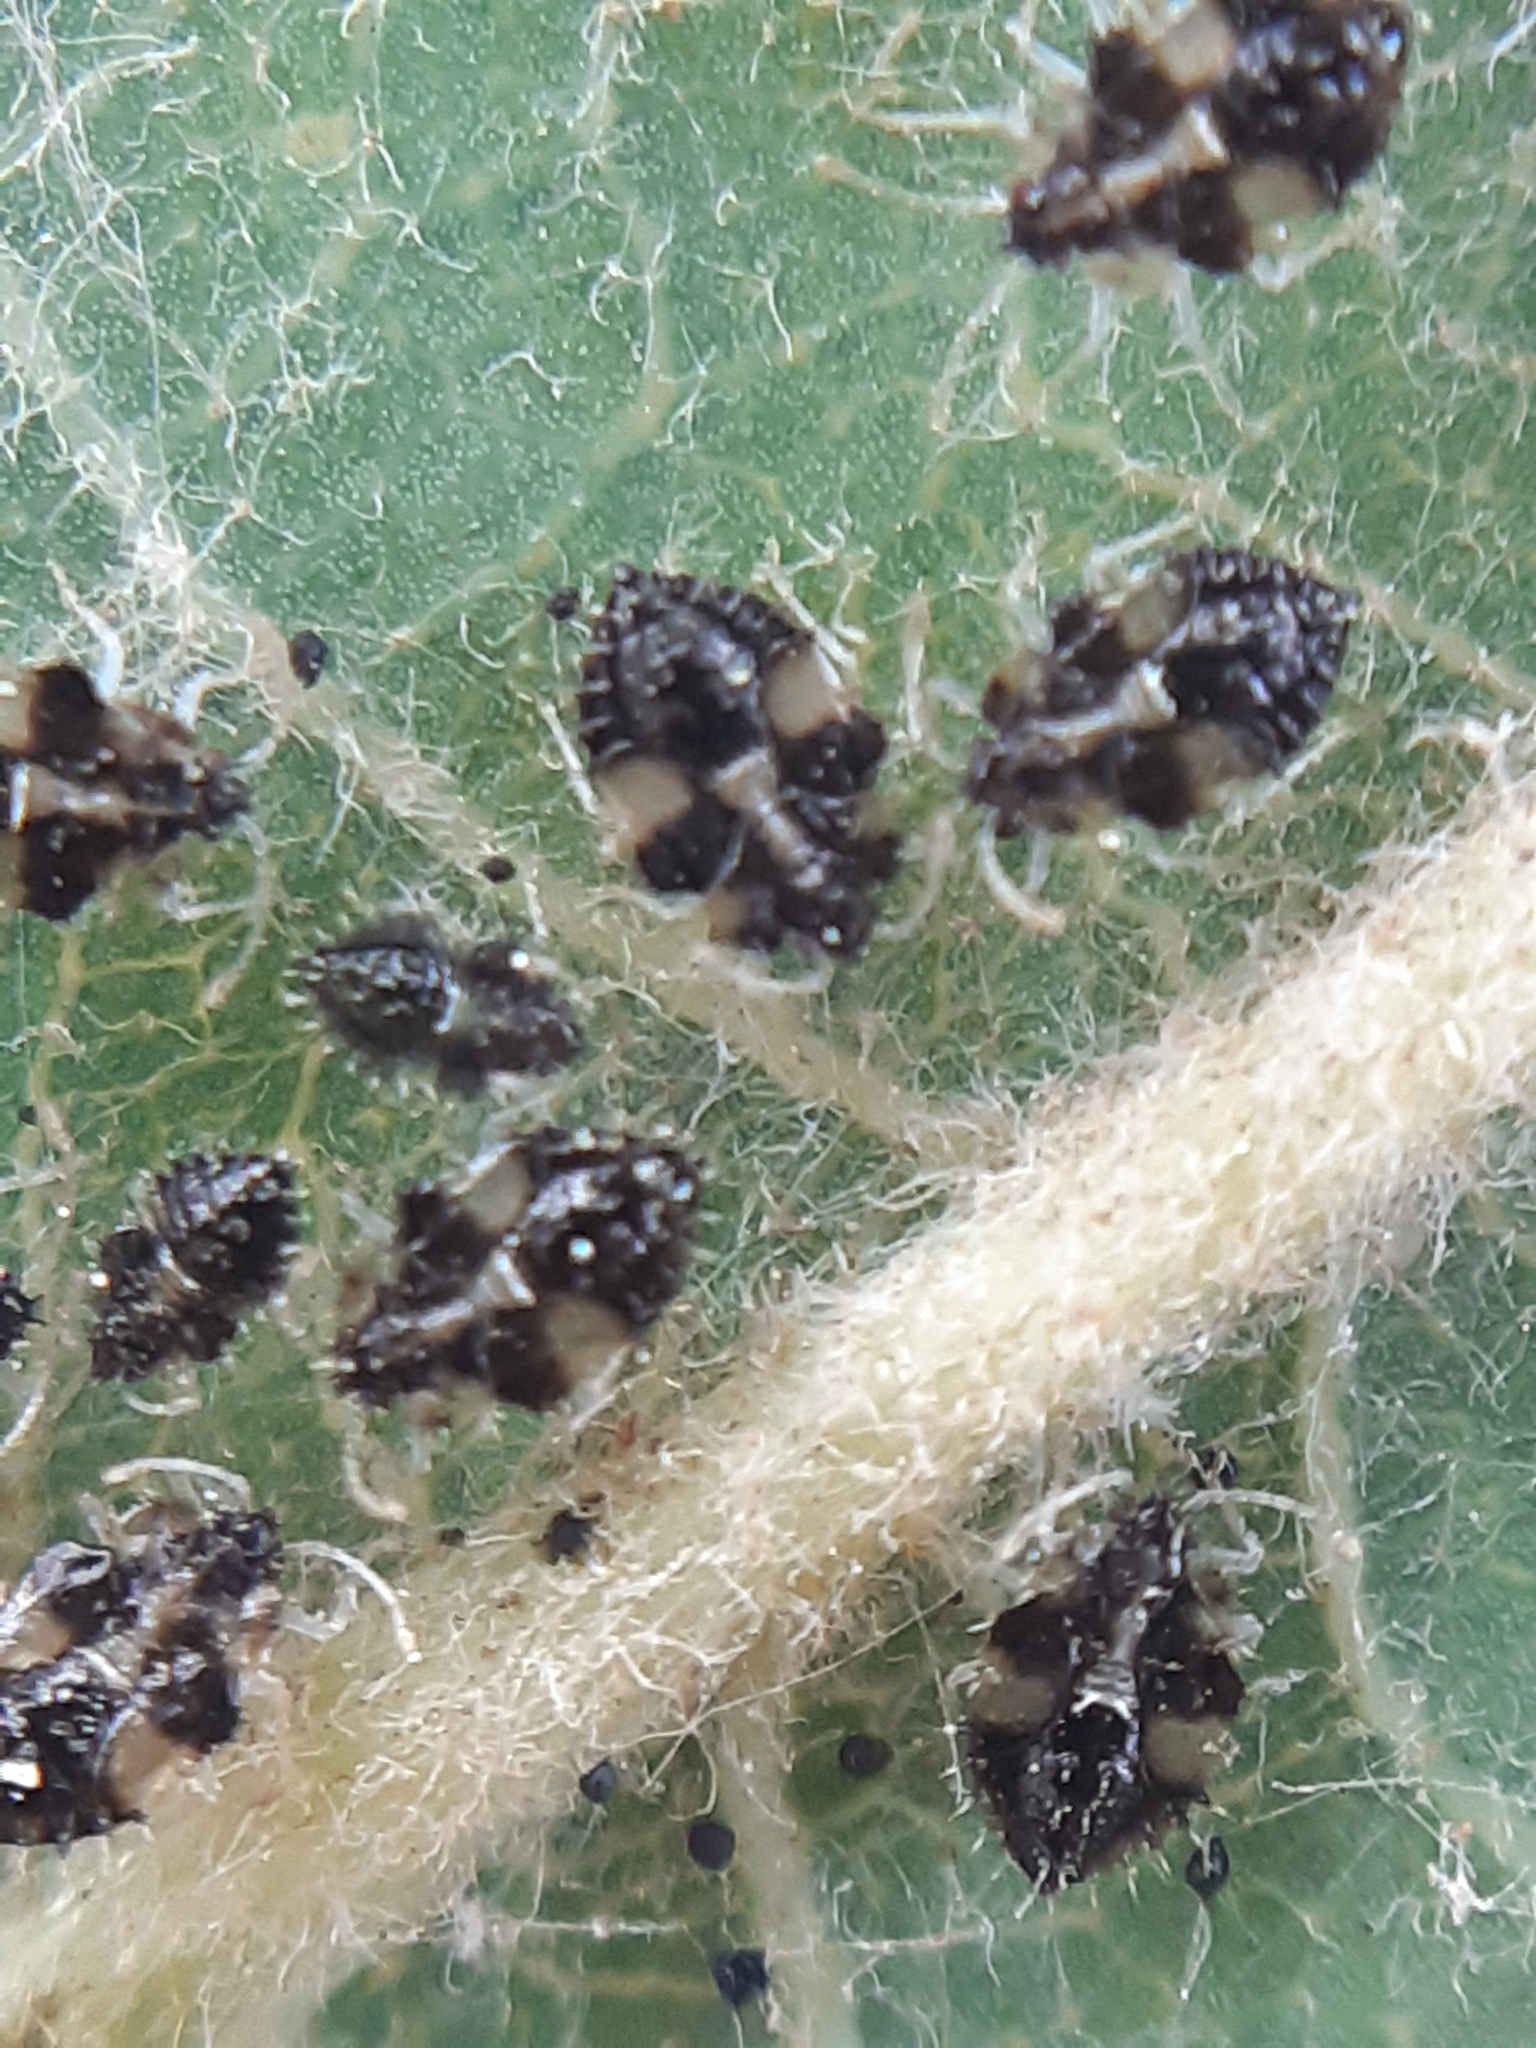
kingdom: Animalia
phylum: Arthropoda
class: Insecta
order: Hemiptera
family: Tingidae
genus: Corythucha
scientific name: Corythucha arcuata
